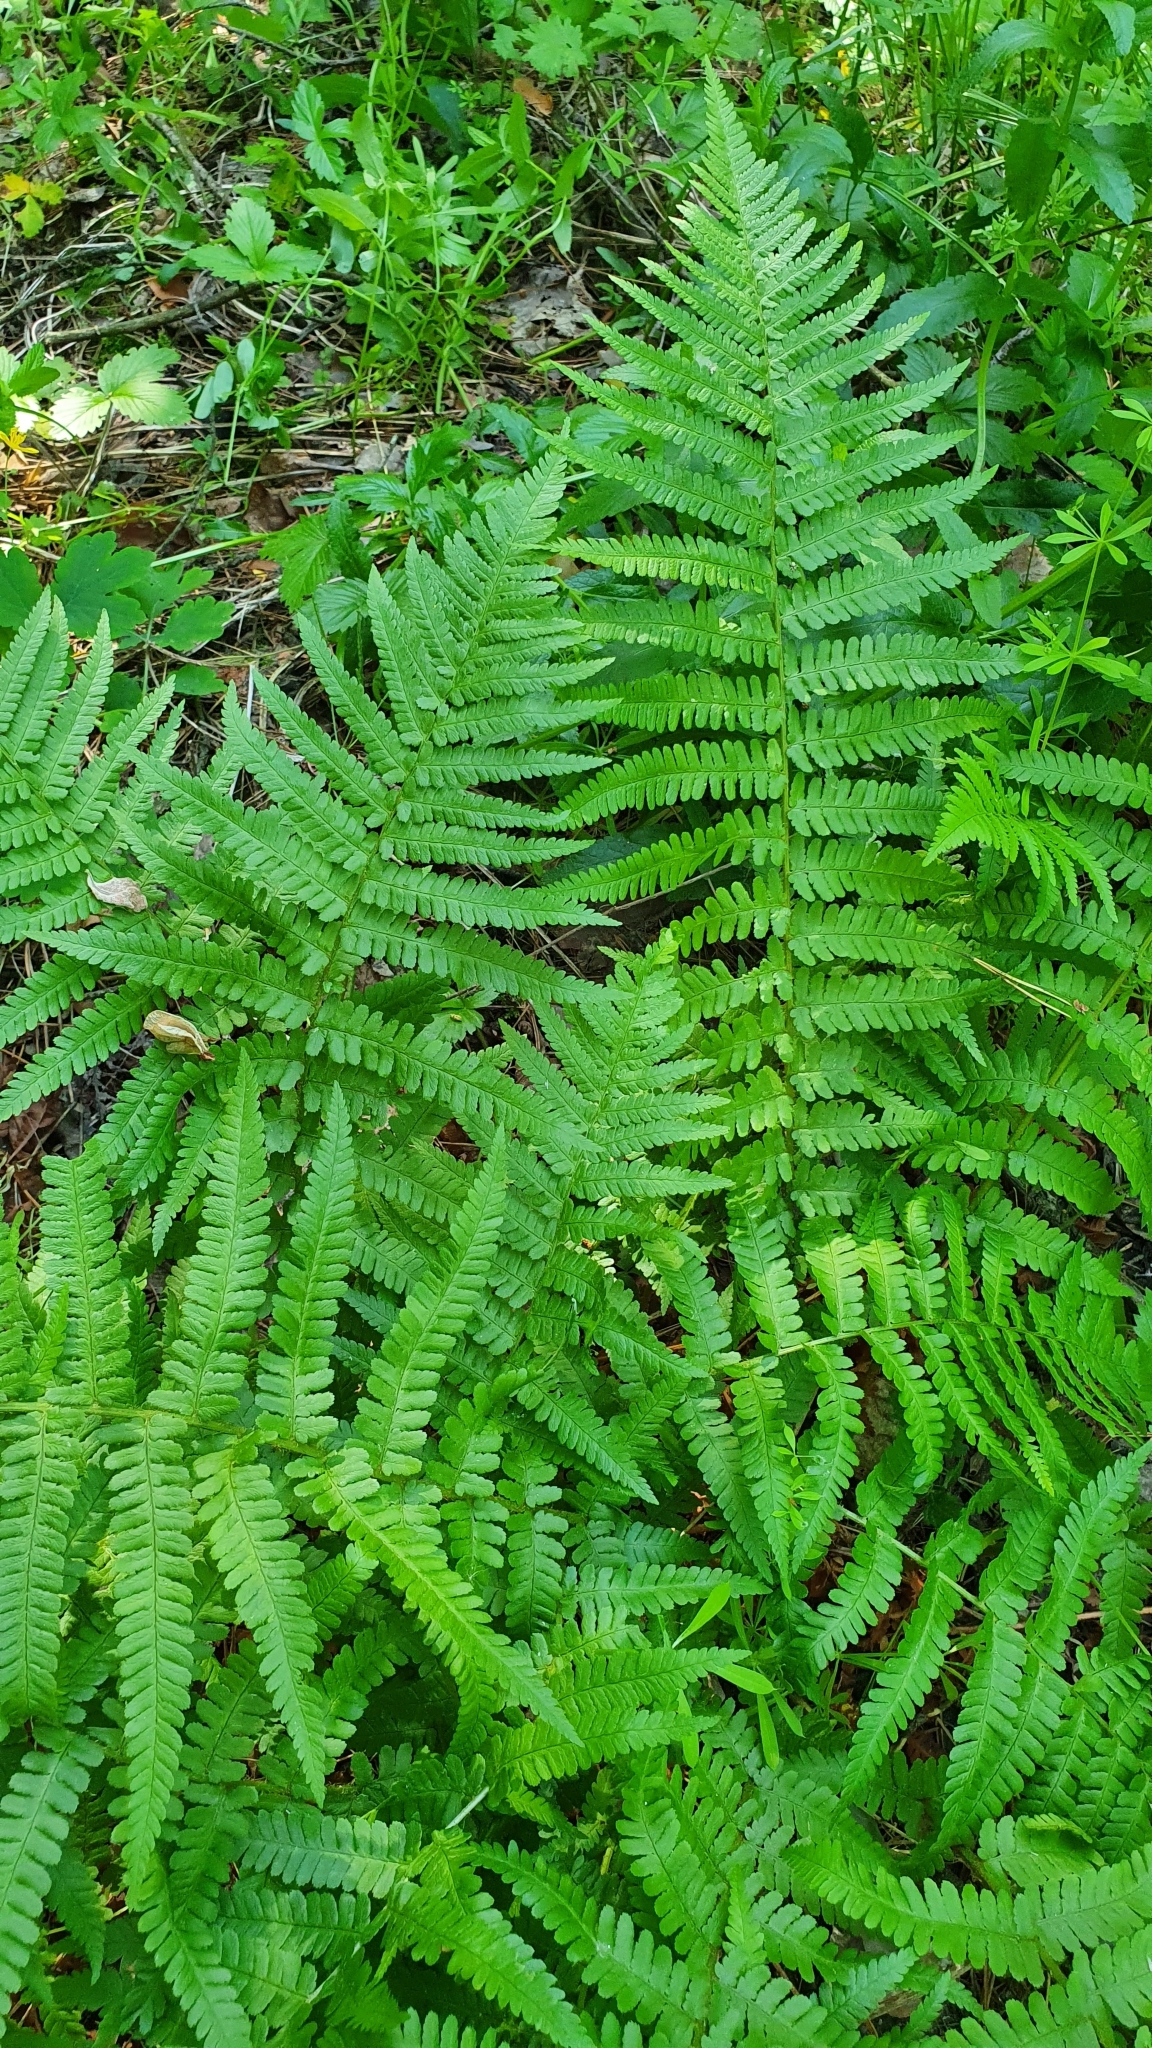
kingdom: Plantae
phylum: Tracheophyta
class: Polypodiopsida
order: Polypodiales
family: Dryopteridaceae
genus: Dryopteris
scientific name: Dryopteris filix-mas
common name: Male fern
